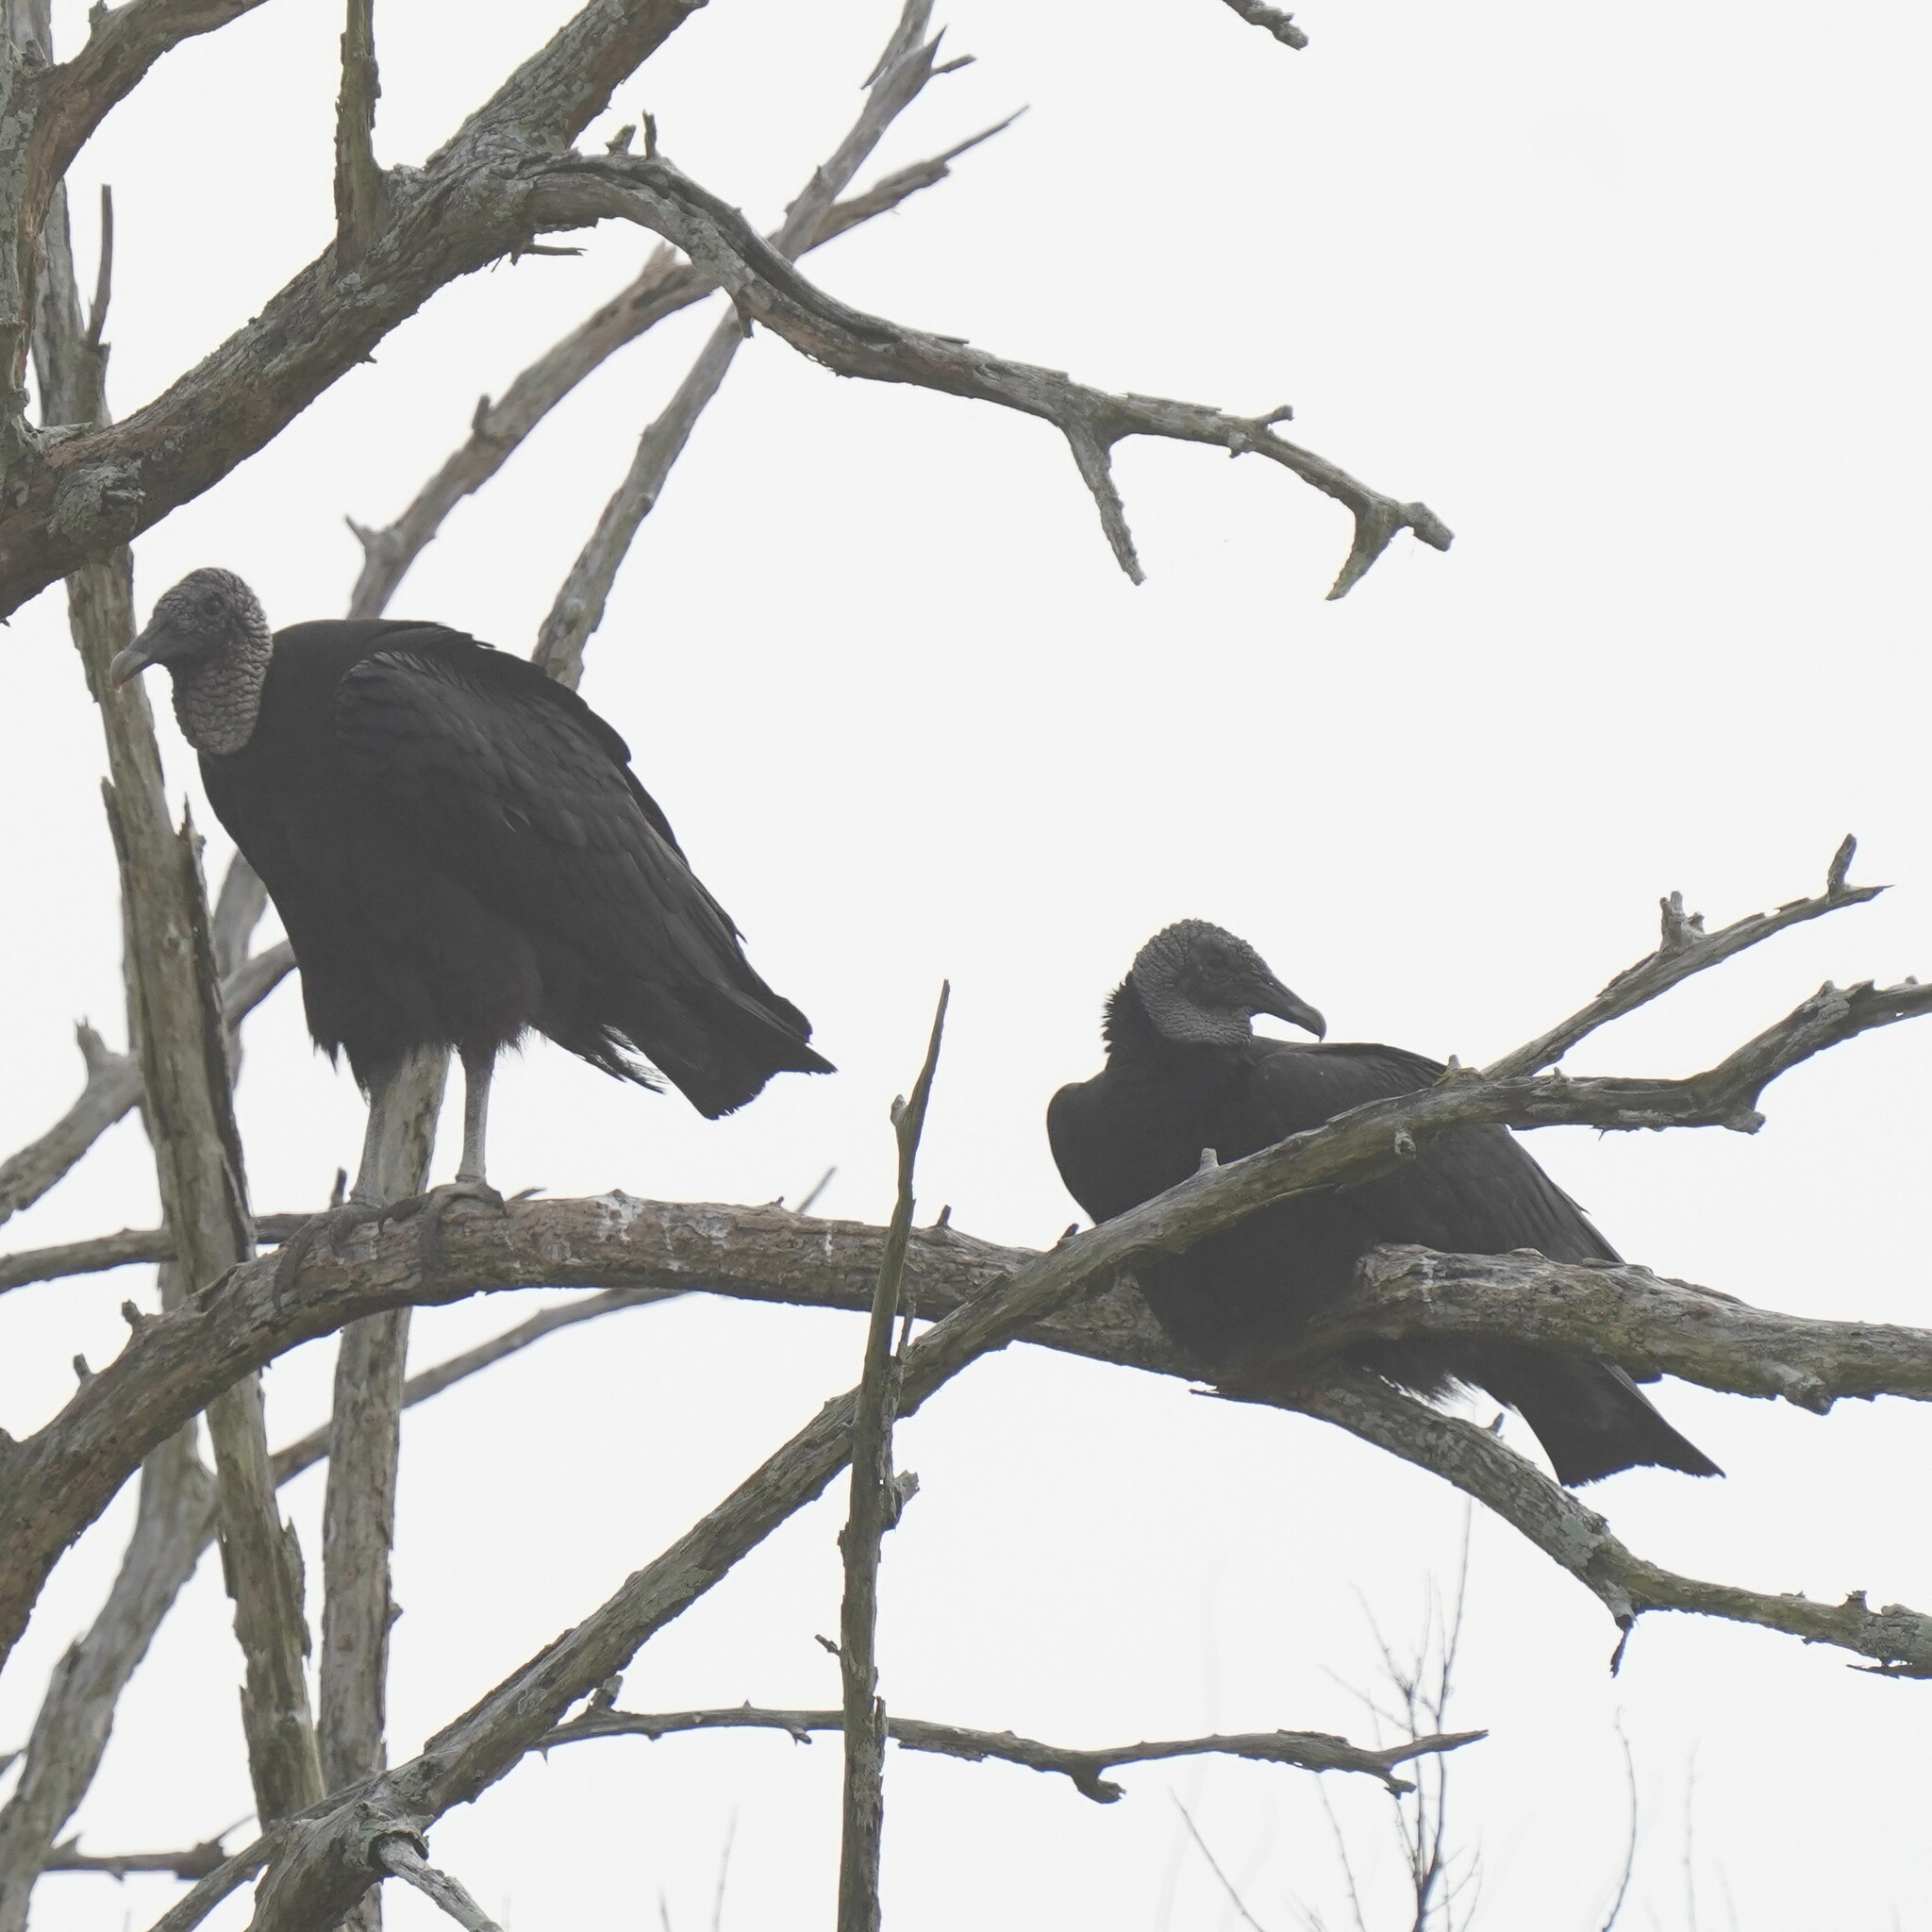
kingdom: Animalia
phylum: Chordata
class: Aves
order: Accipitriformes
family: Cathartidae
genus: Coragyps
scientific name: Coragyps atratus
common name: Black vulture
